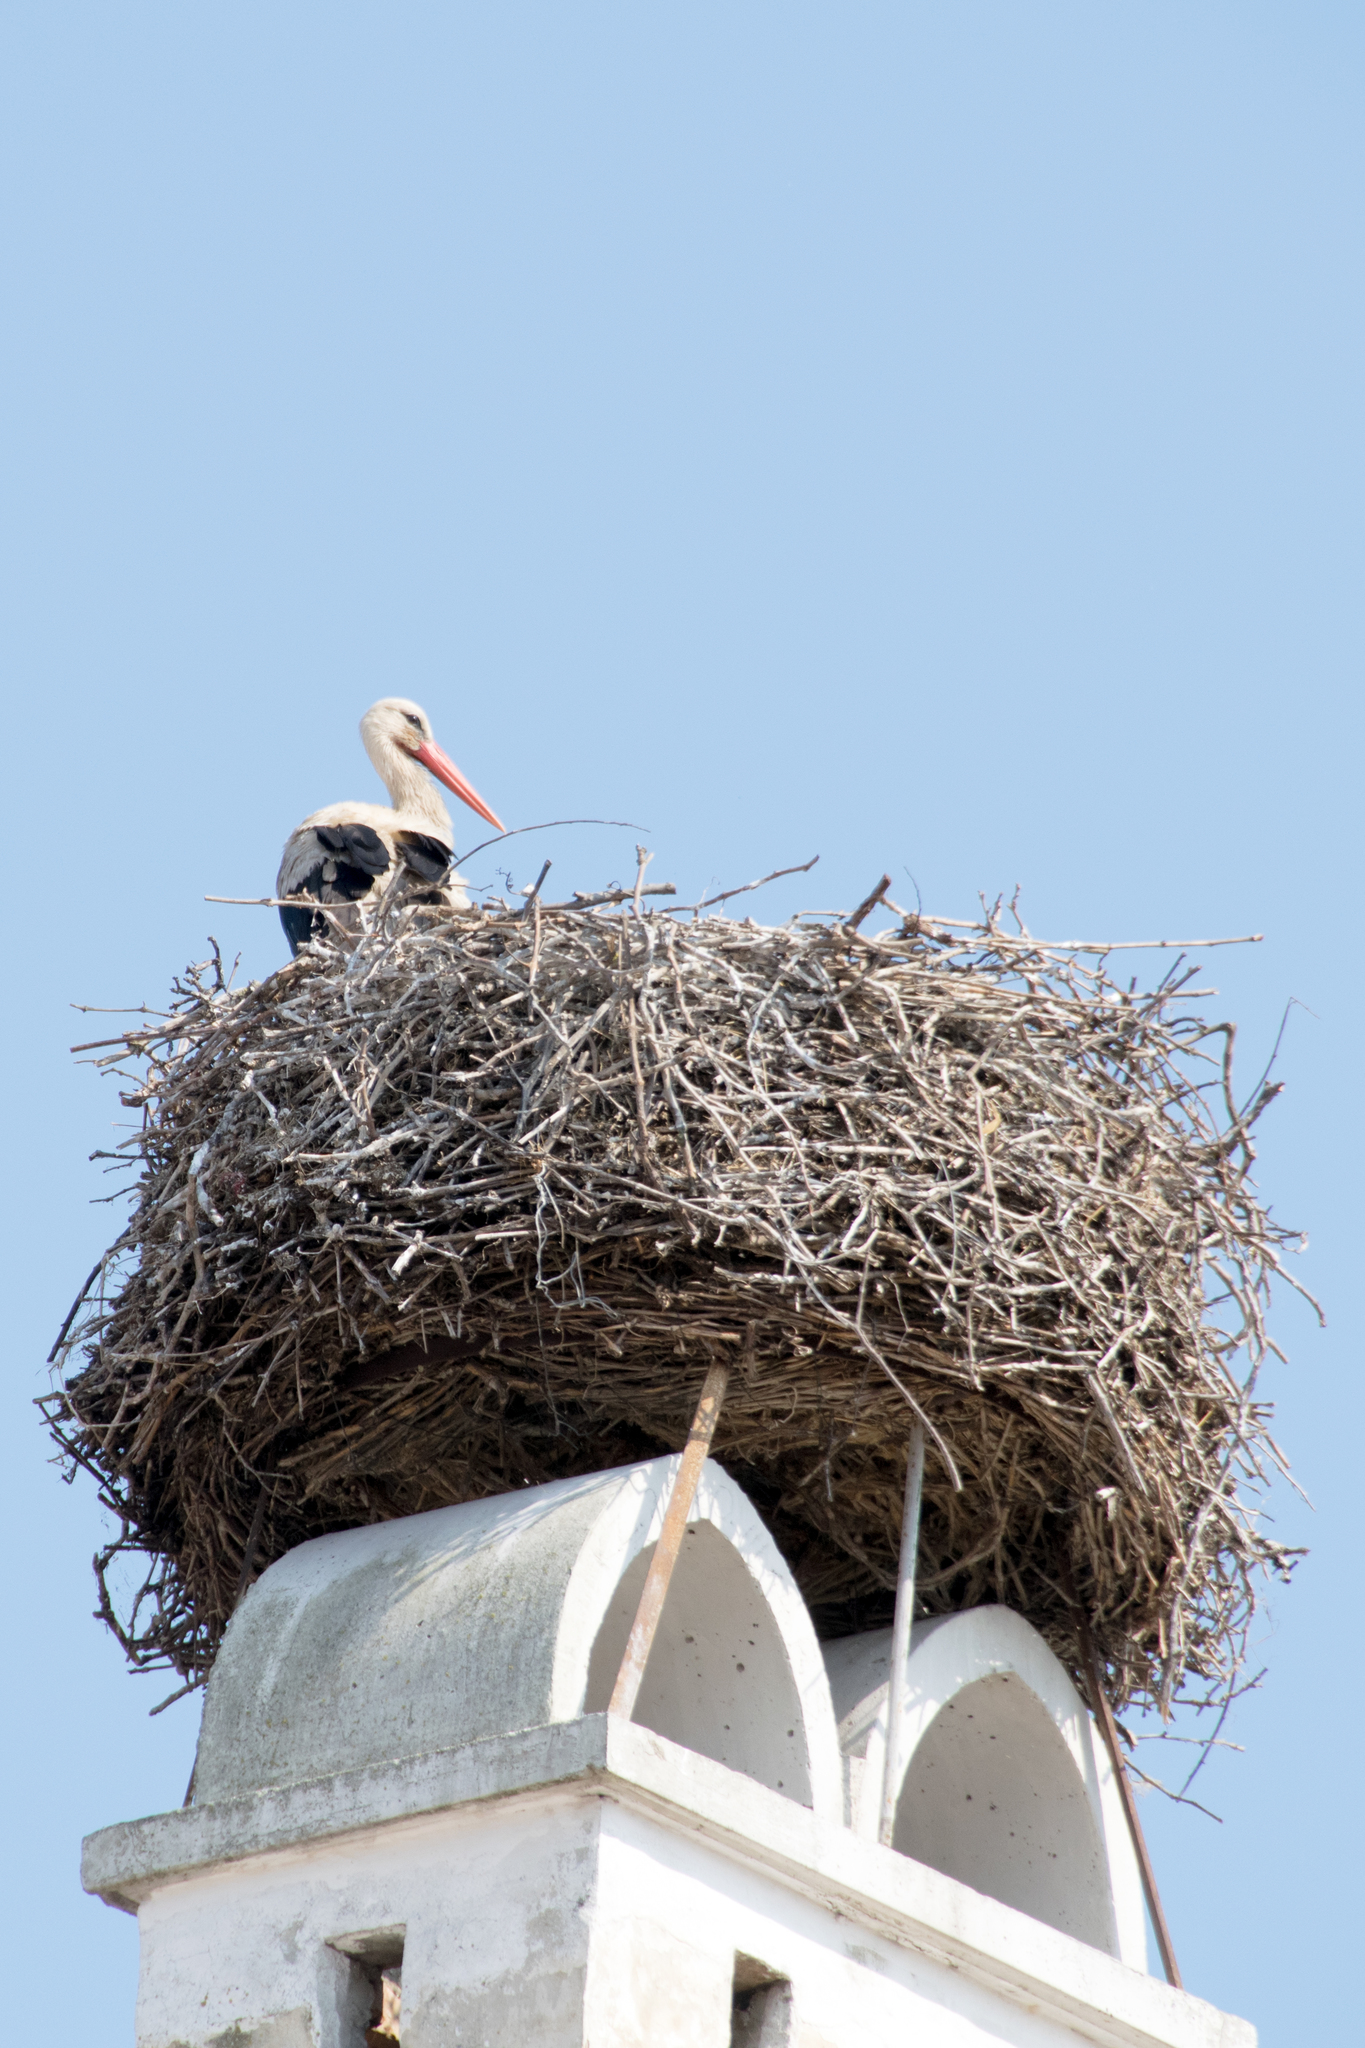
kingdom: Animalia
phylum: Chordata
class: Aves
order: Ciconiiformes
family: Ciconiidae
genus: Ciconia
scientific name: Ciconia ciconia
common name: White stork
